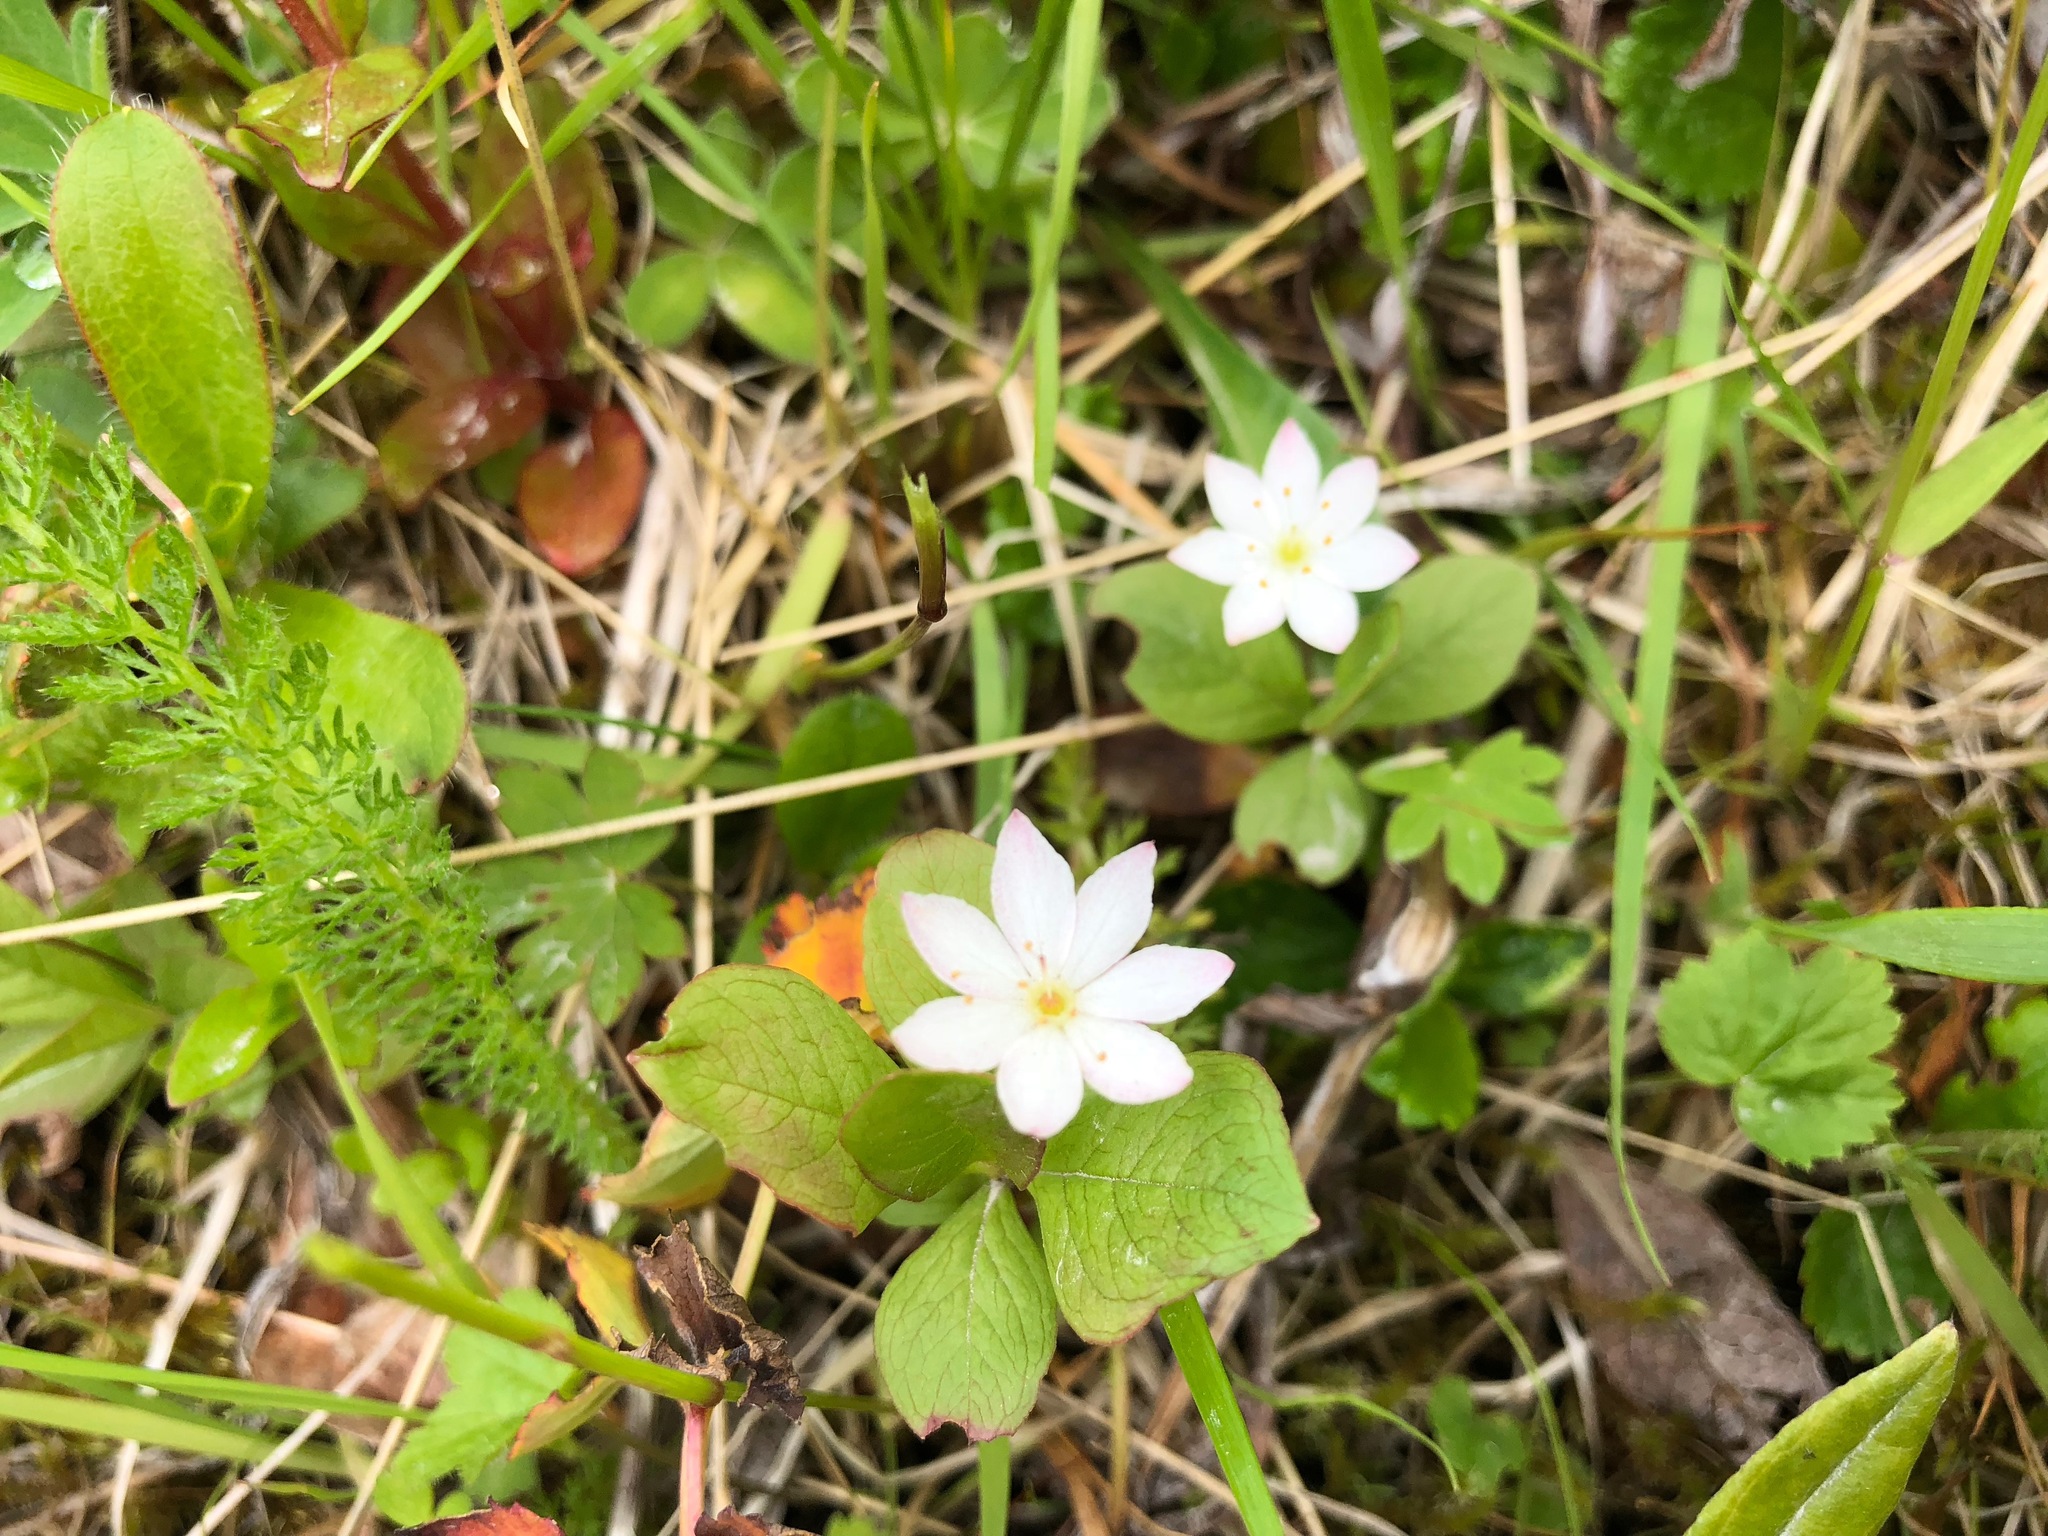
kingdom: Plantae
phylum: Tracheophyta
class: Magnoliopsida
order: Ericales
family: Primulaceae
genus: Lysimachia
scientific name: Lysimachia europaea
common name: Arctic starflower
